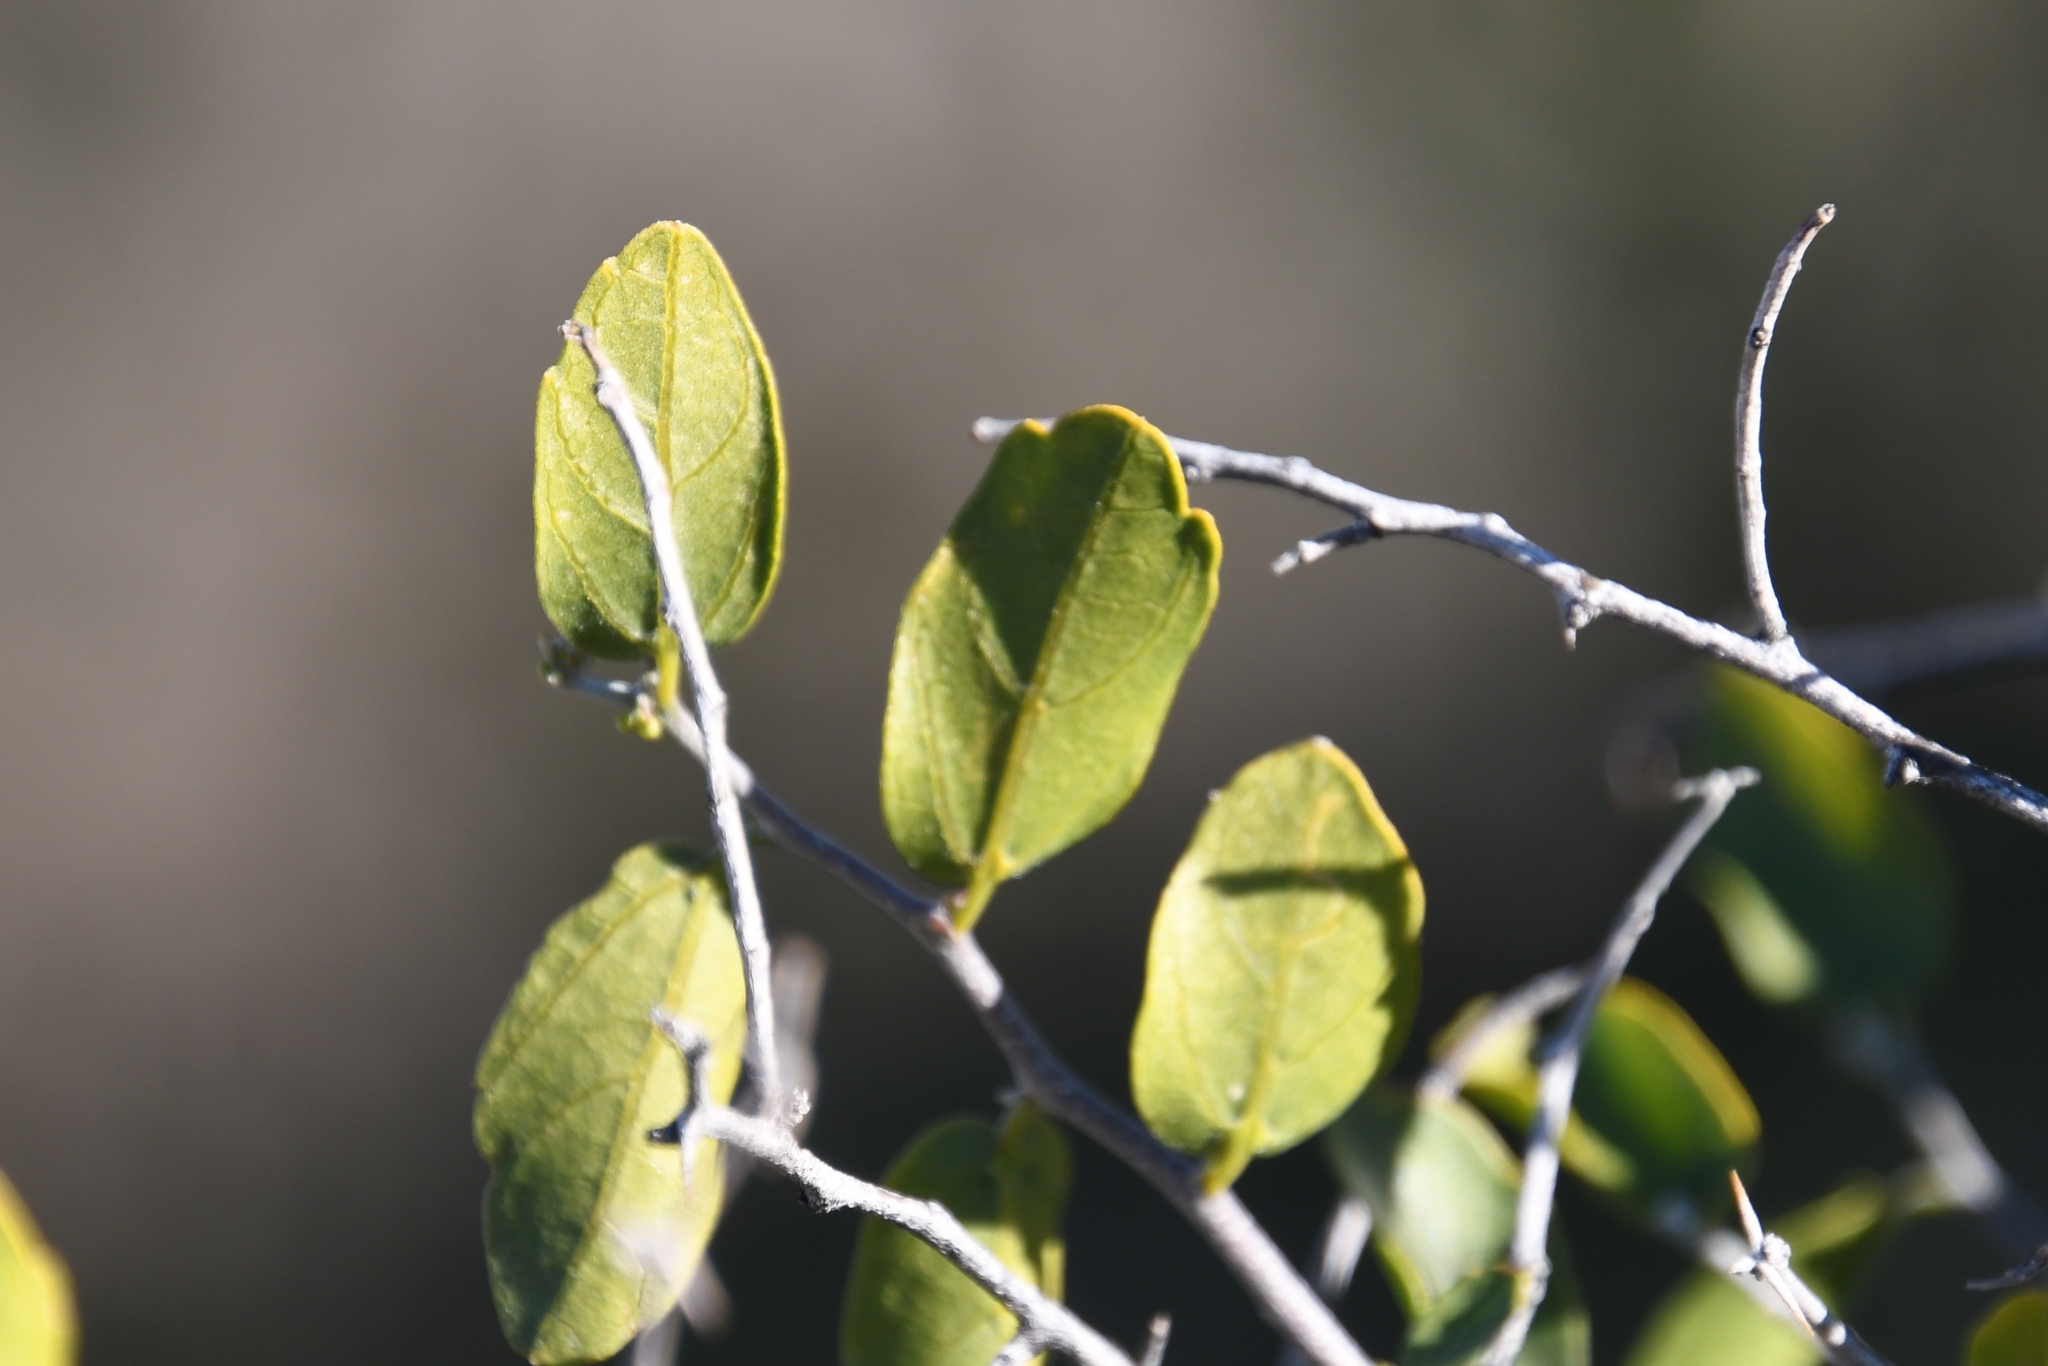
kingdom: Plantae
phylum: Tracheophyta
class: Magnoliopsida
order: Rosales
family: Cannabaceae
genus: Celtis
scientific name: Celtis pallida
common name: Desert hackberry
